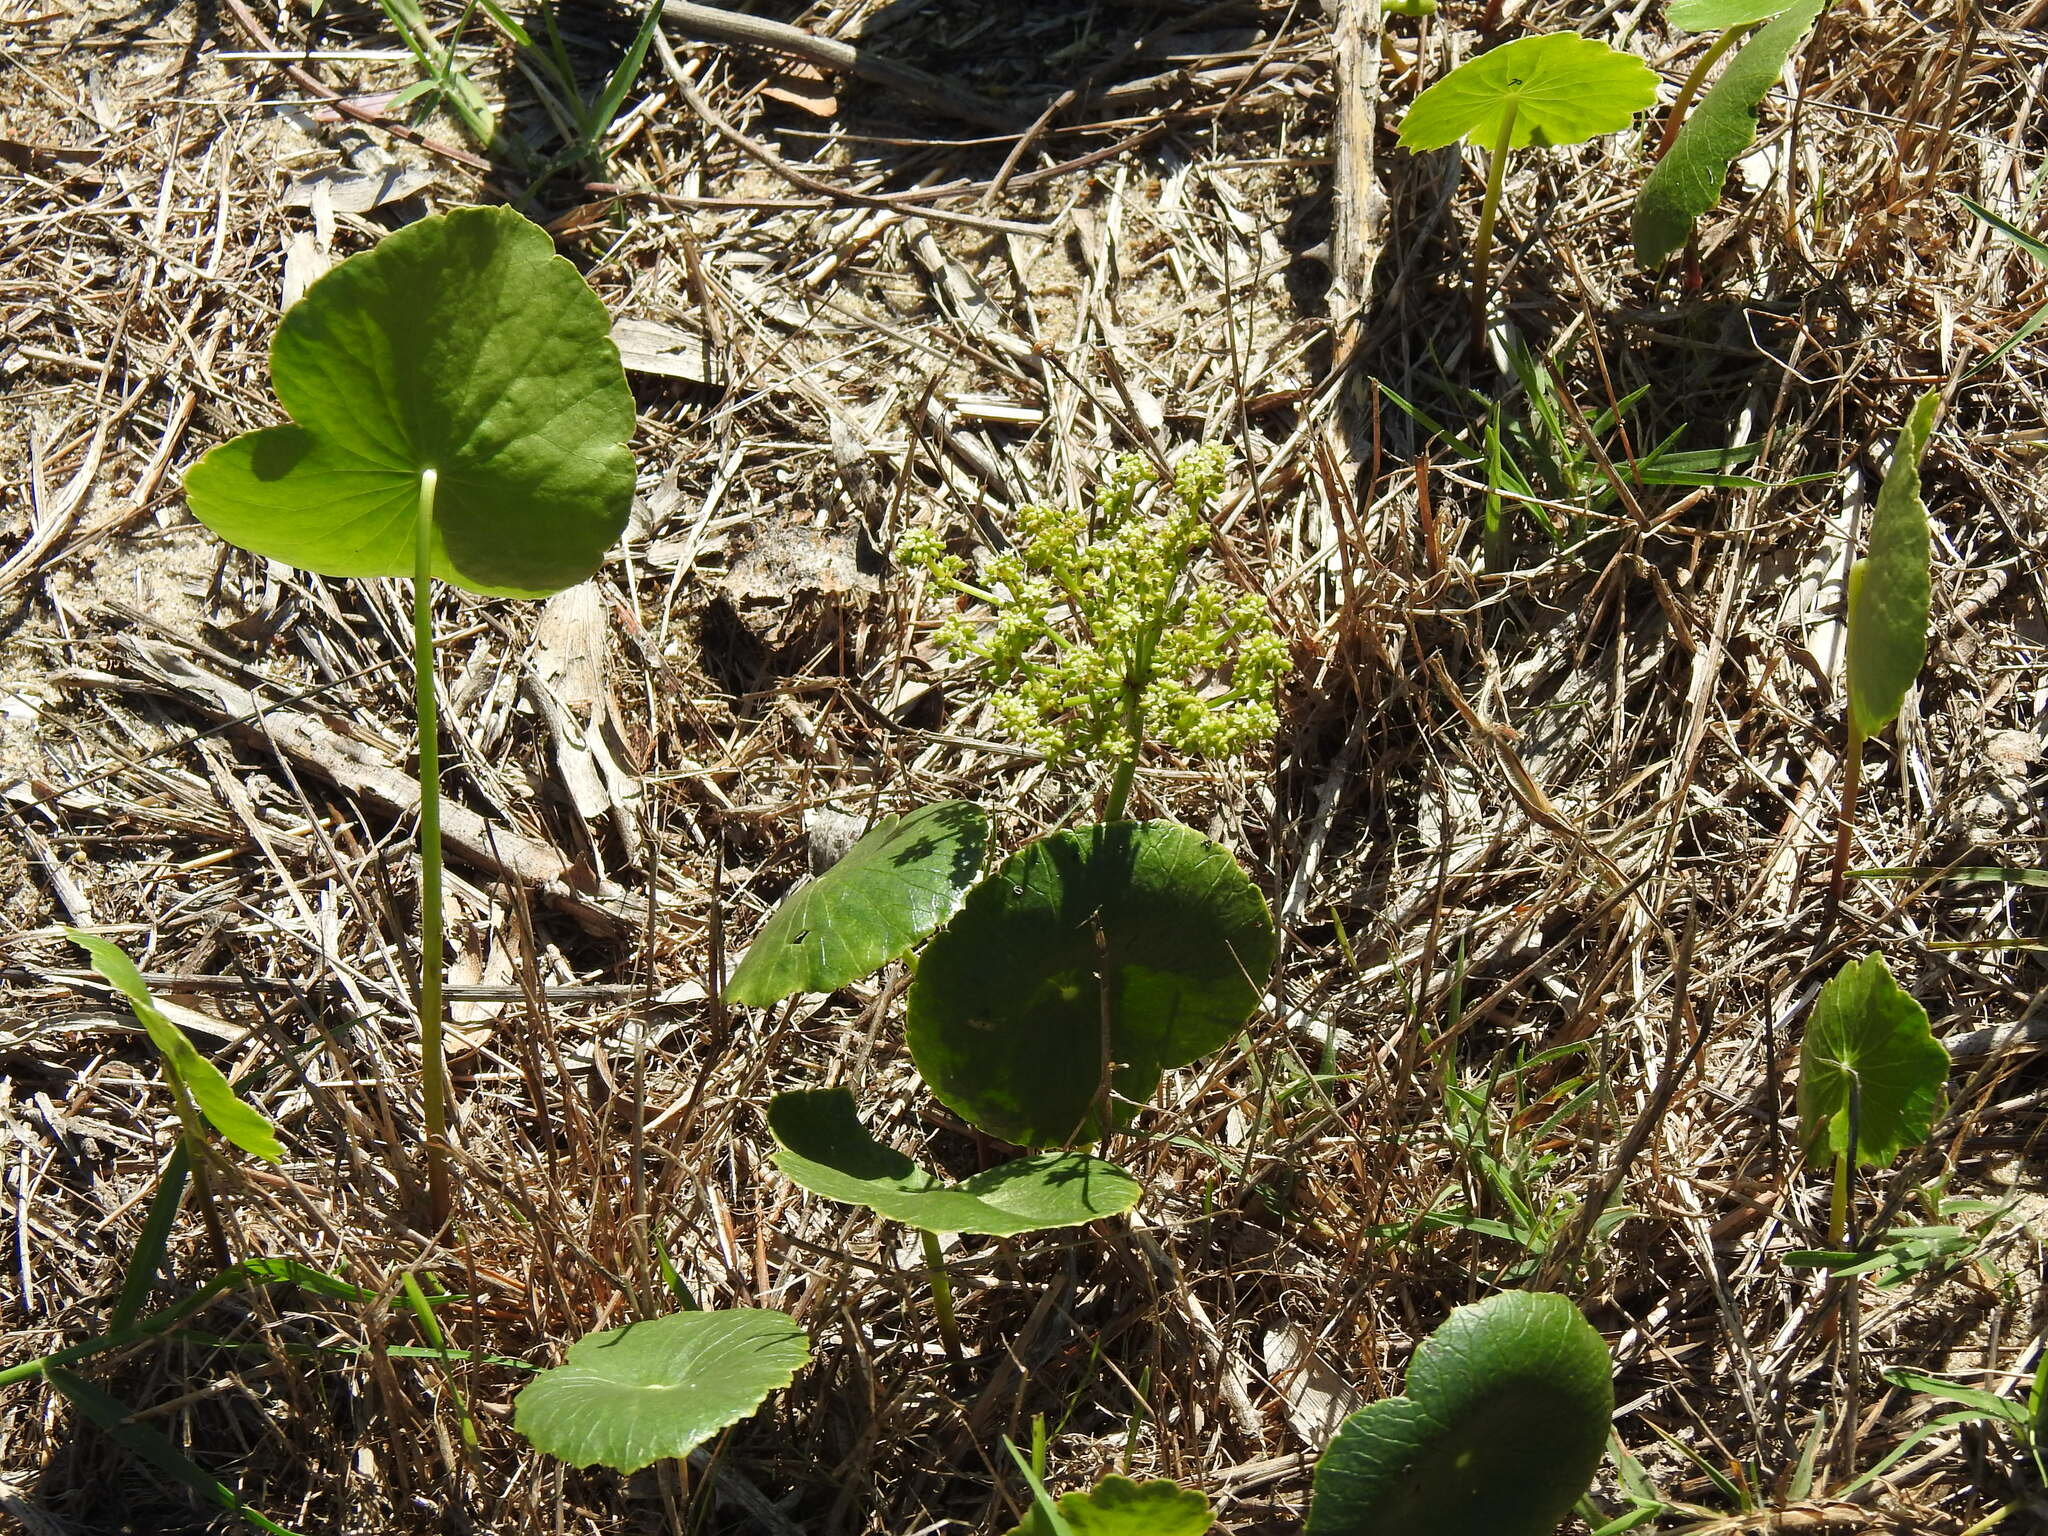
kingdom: Plantae
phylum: Tracheophyta
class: Magnoliopsida
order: Apiales
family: Araliaceae
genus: Hydrocotyle
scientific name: Hydrocotyle bonariensis
